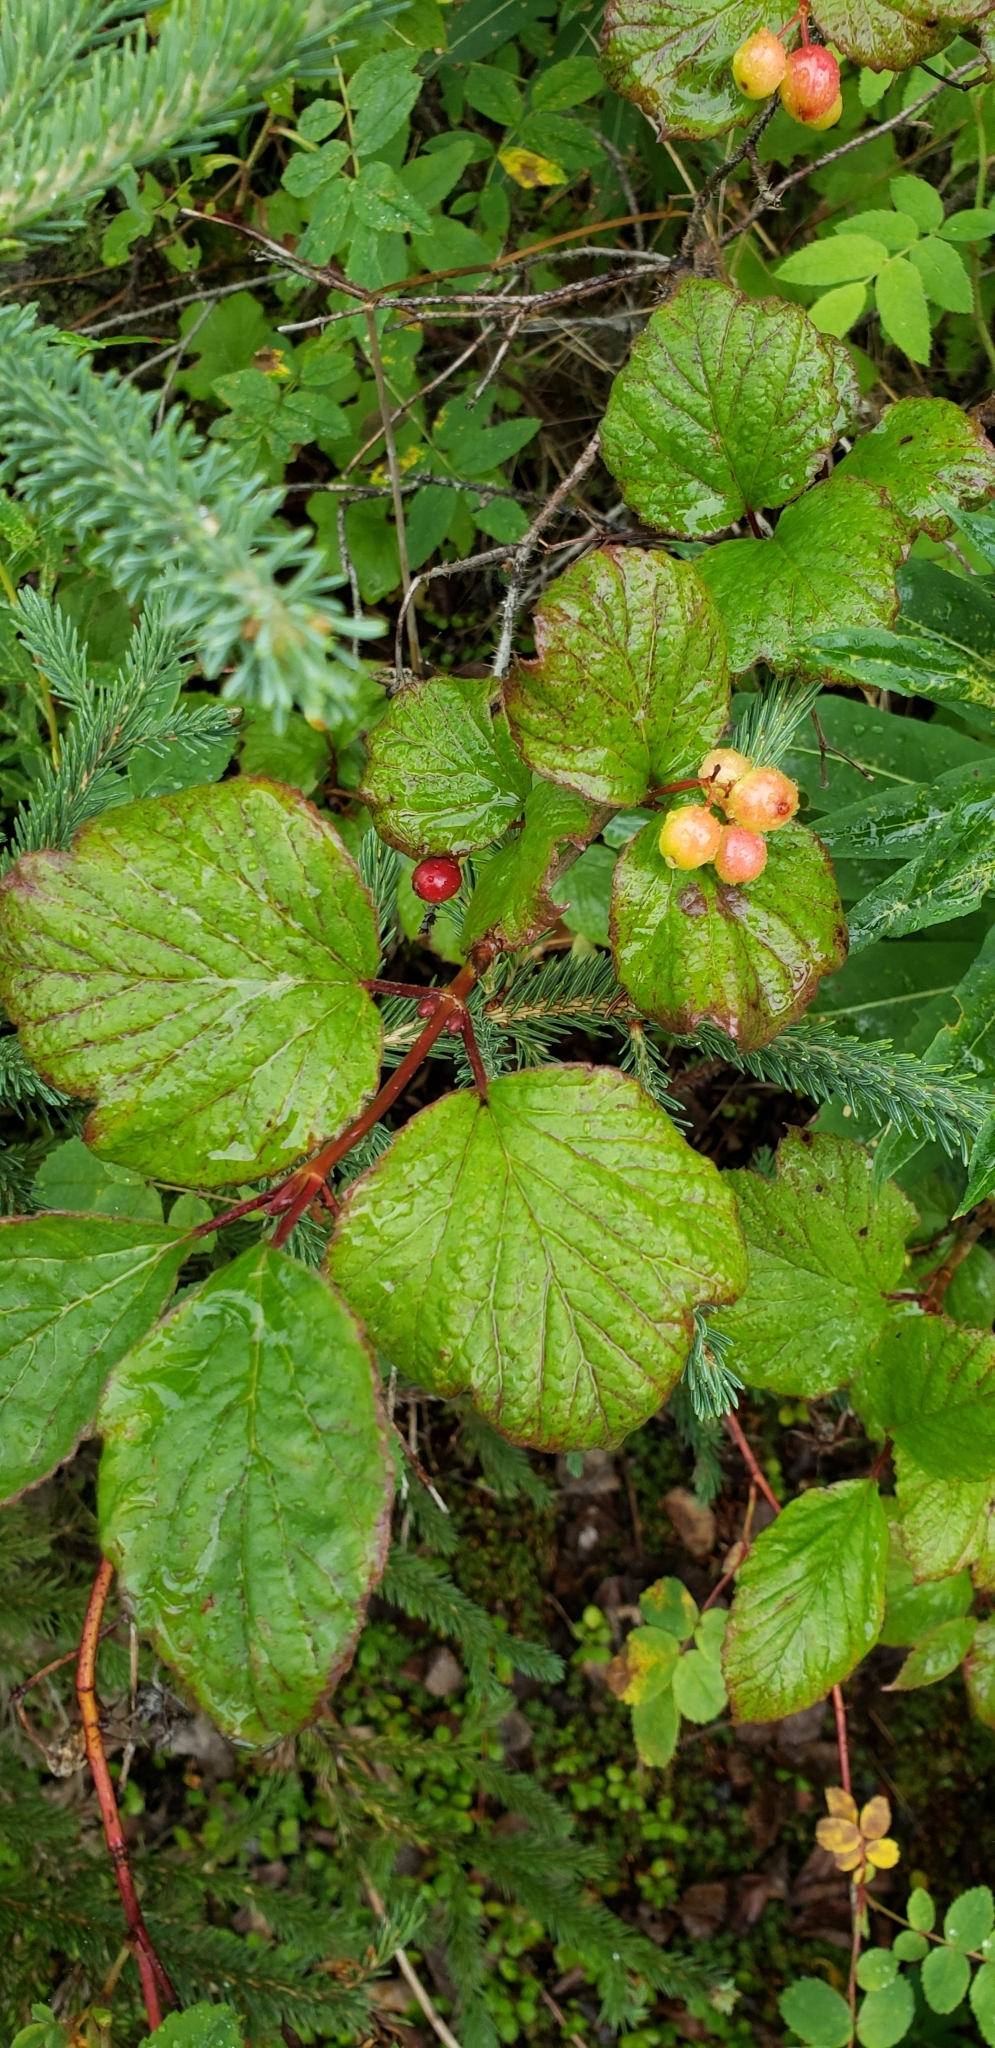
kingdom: Plantae
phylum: Tracheophyta
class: Magnoliopsida
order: Dipsacales
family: Viburnaceae
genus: Viburnum
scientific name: Viburnum edule
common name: Mooseberry
